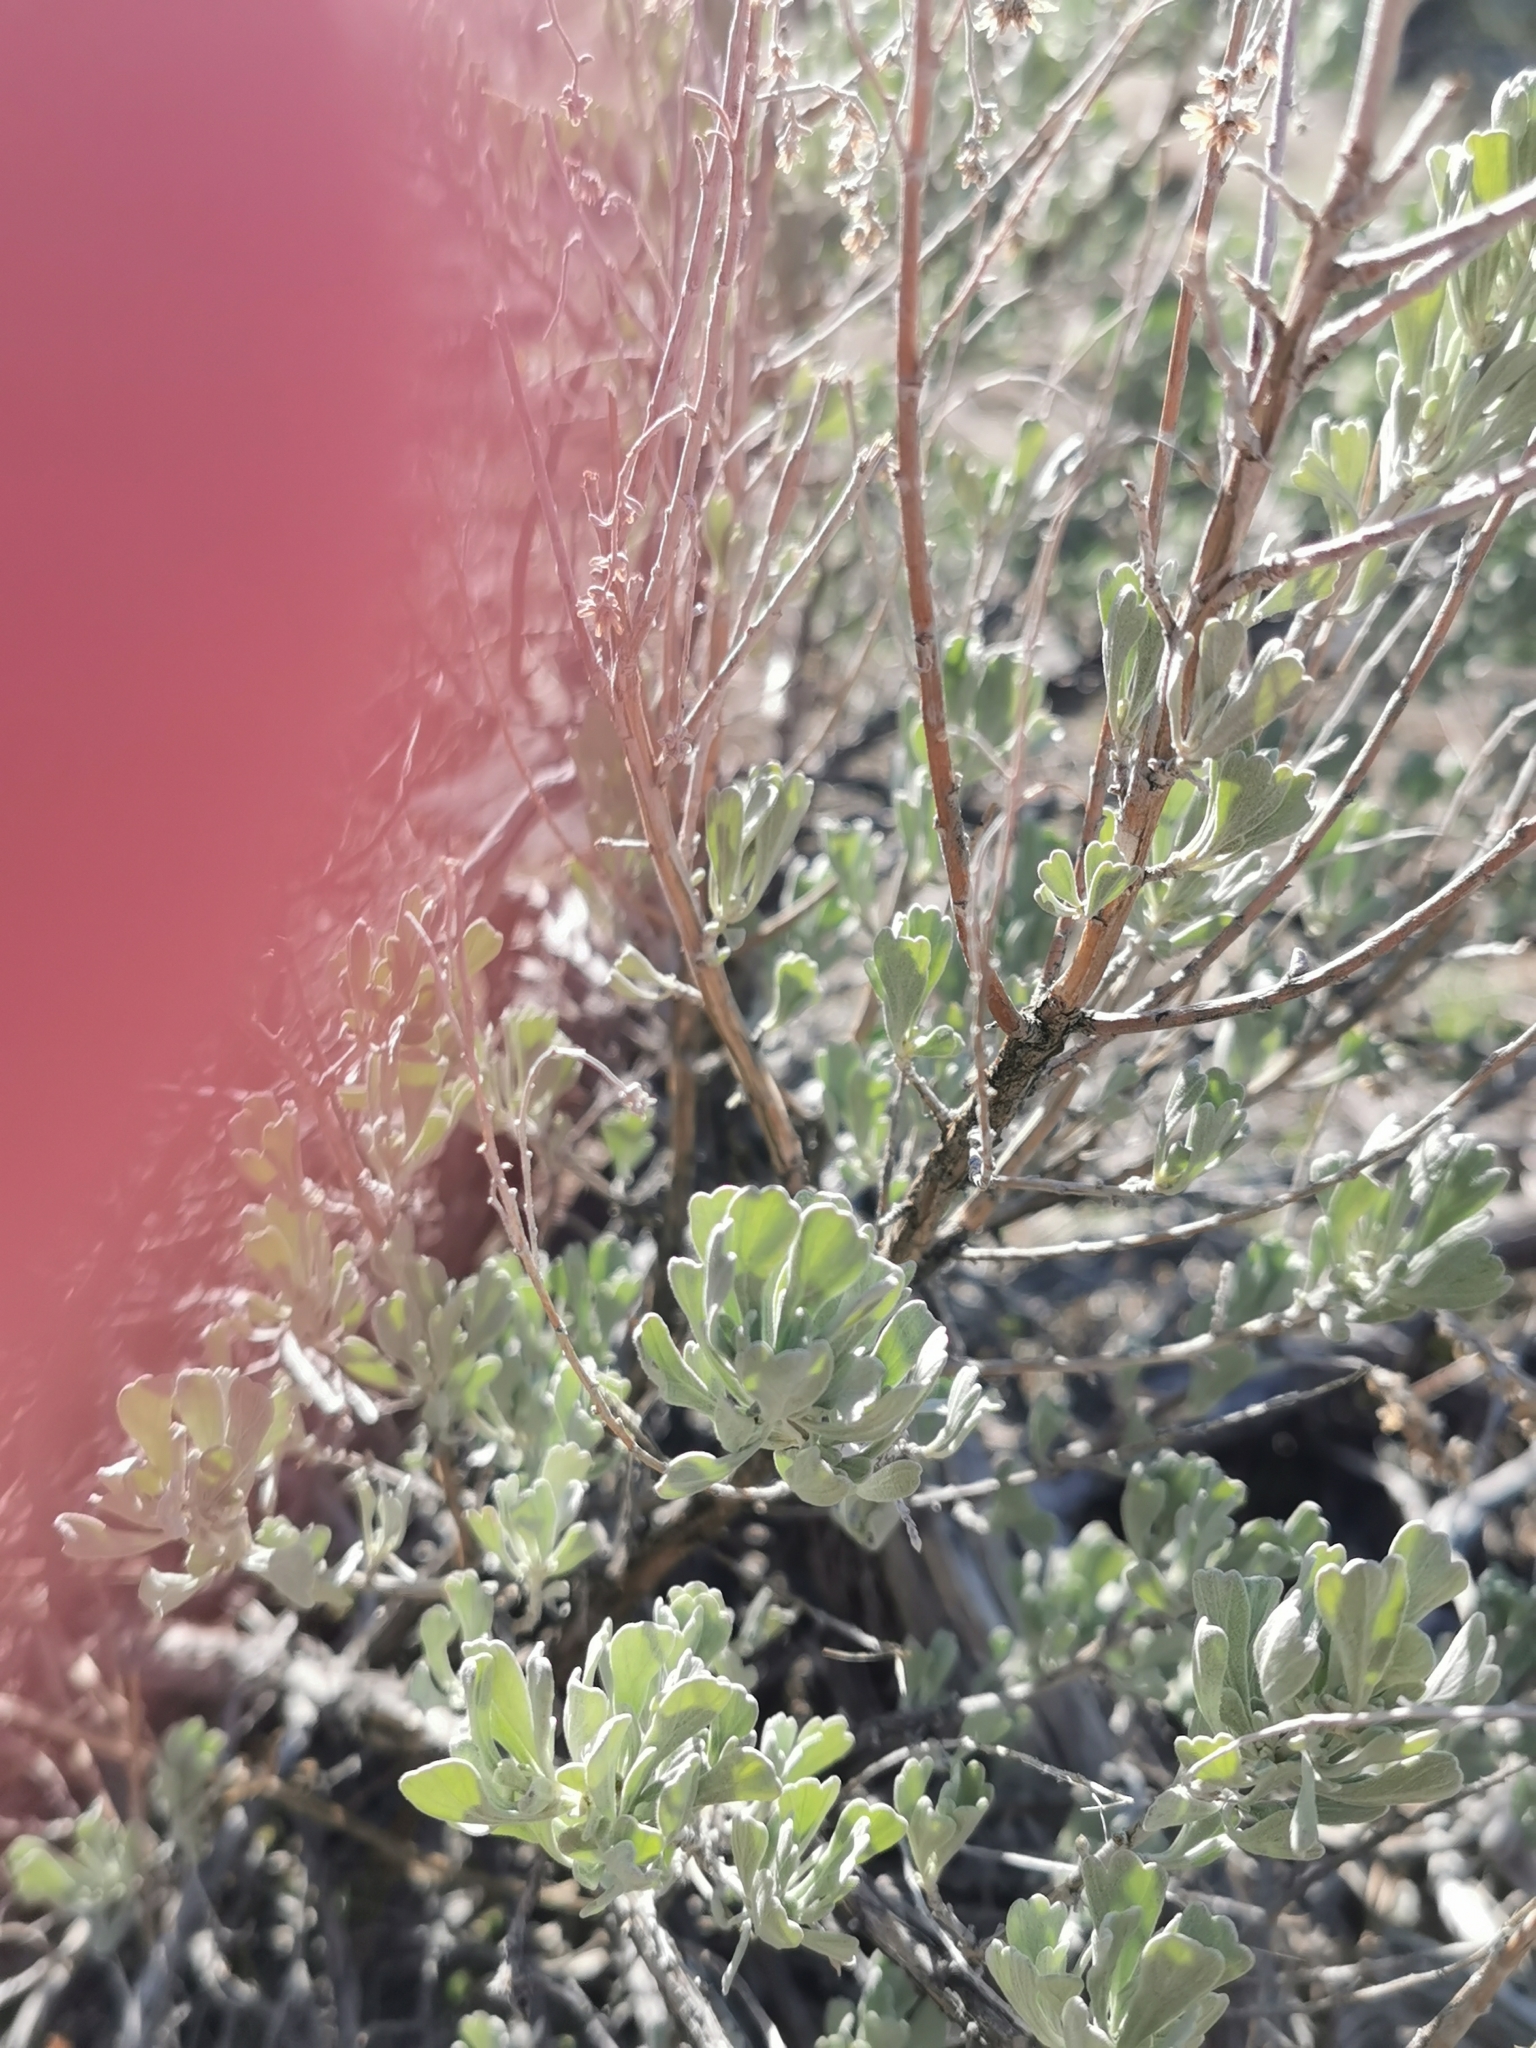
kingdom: Plantae
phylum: Tracheophyta
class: Magnoliopsida
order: Asterales
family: Asteraceae
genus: Artemisia
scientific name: Artemisia tridentata
